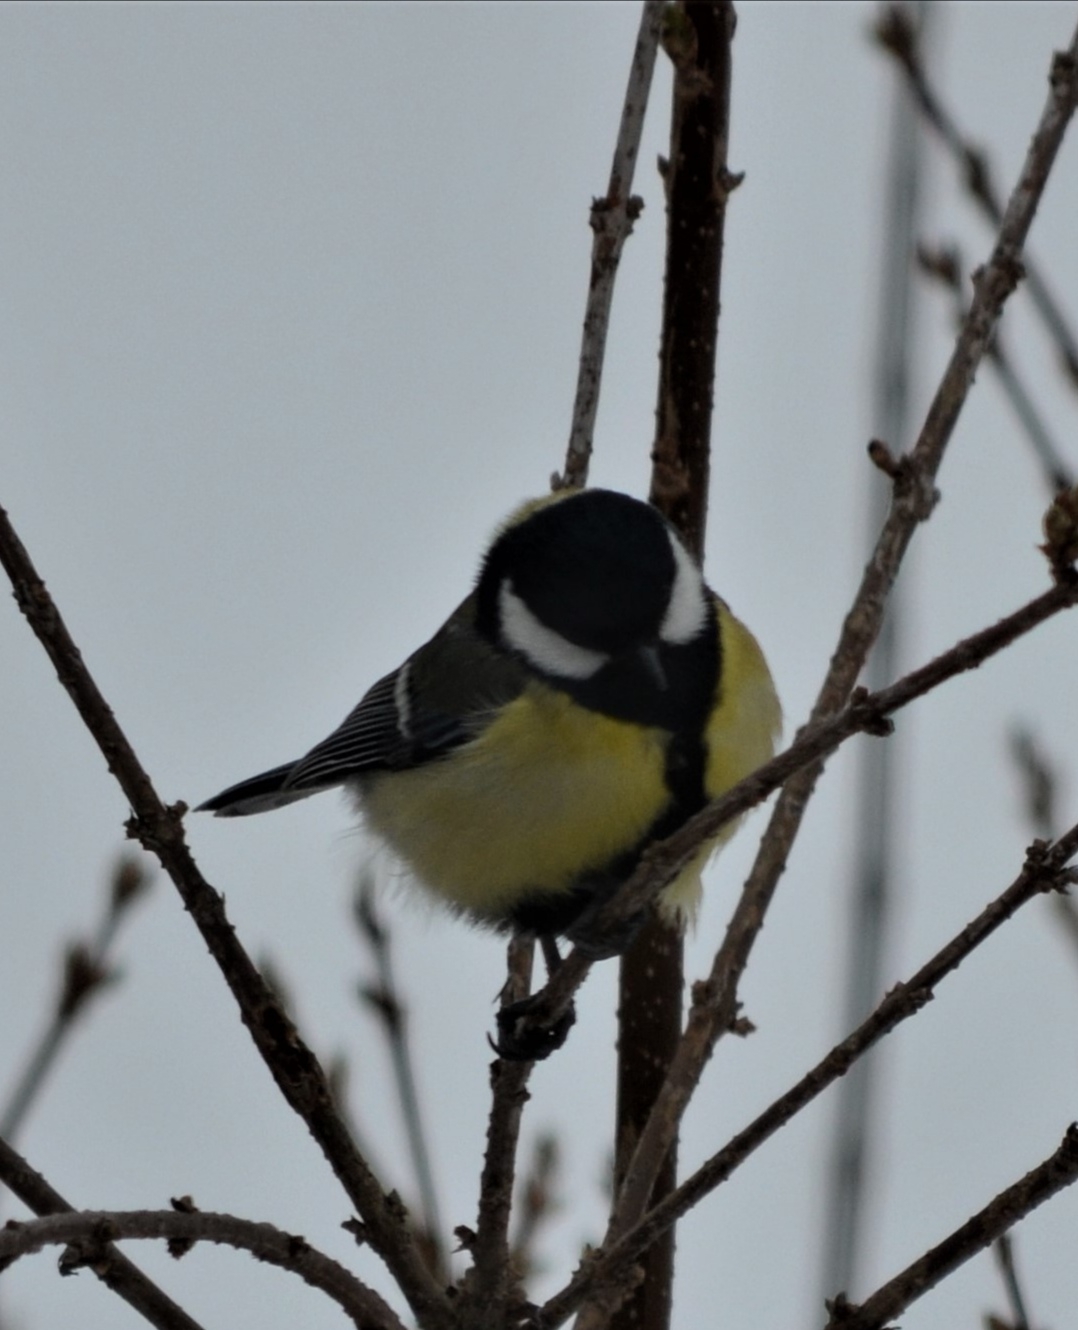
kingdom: Animalia
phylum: Chordata
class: Aves
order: Passeriformes
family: Paridae
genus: Parus
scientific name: Parus major
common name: Great tit
